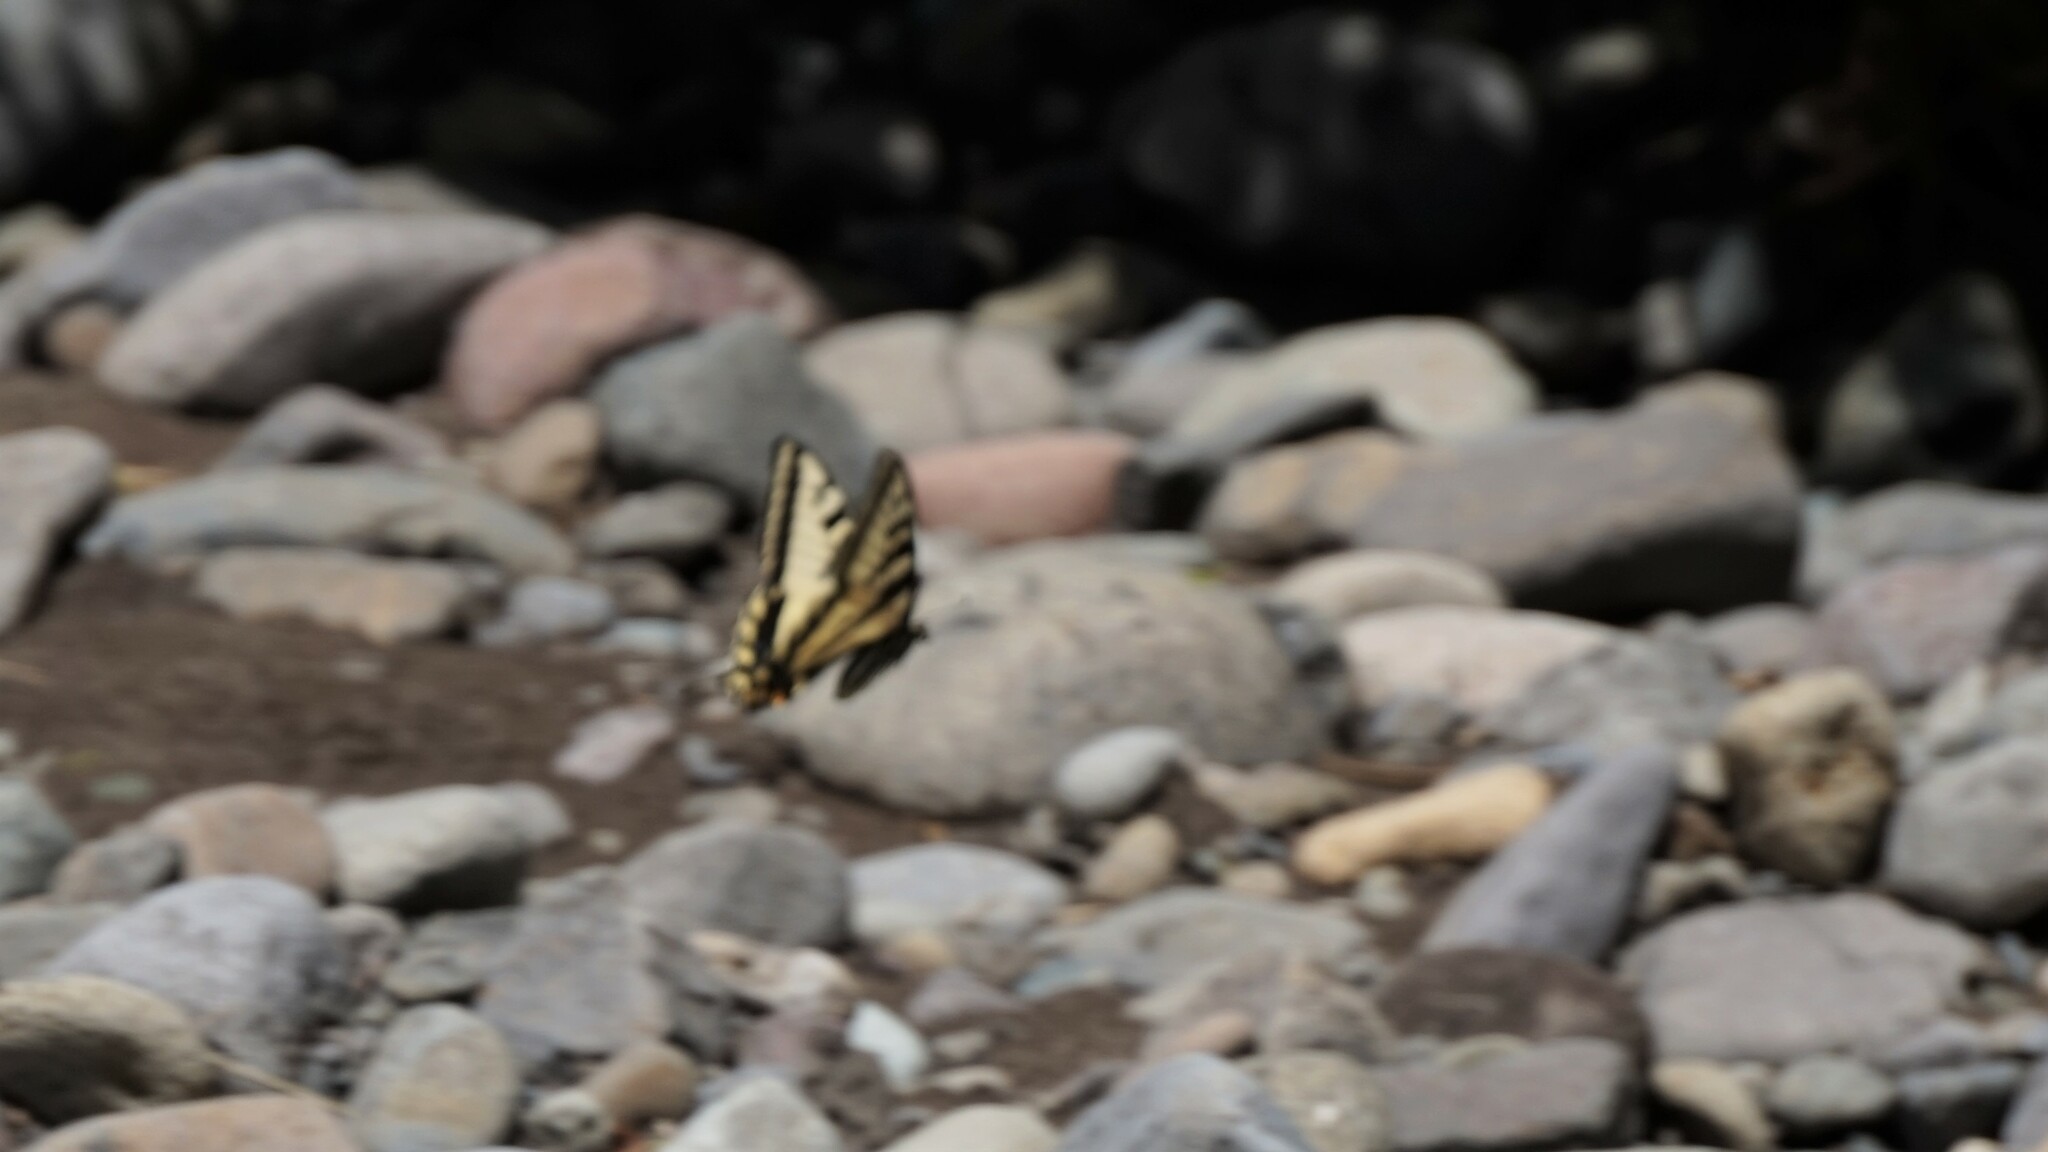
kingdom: Animalia
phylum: Arthropoda
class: Insecta
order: Lepidoptera
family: Papilionidae
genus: Papilio
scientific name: Papilio rutulus
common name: Western tiger swallowtail
